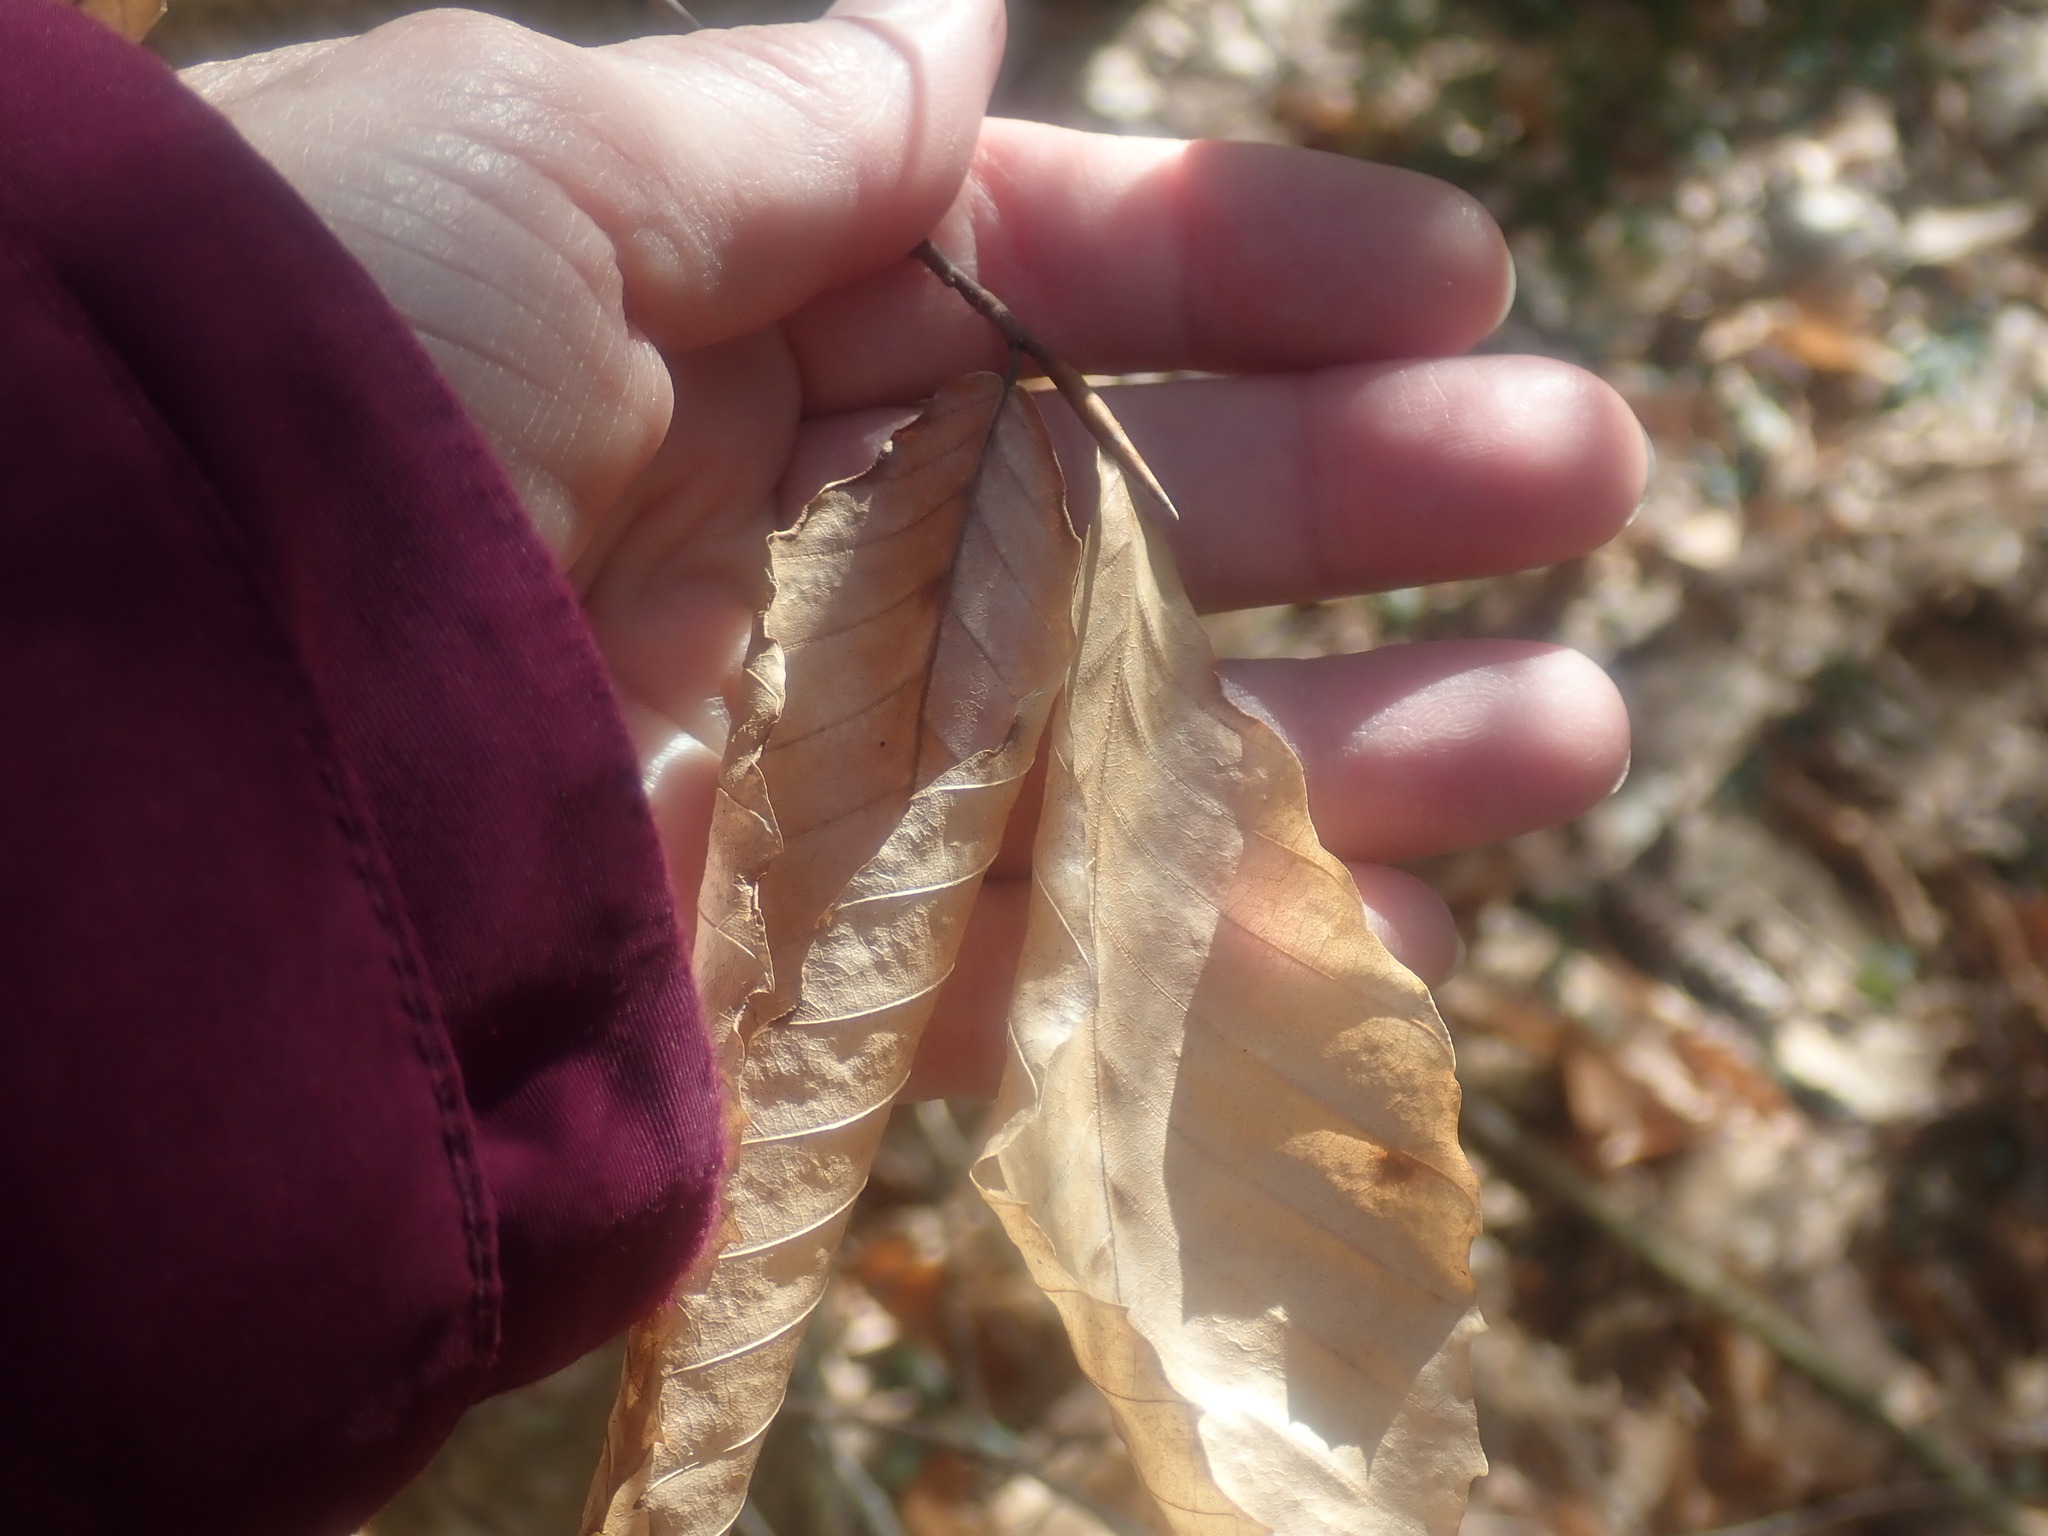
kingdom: Plantae
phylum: Tracheophyta
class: Magnoliopsida
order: Fagales
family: Fagaceae
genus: Fagus
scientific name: Fagus grandifolia
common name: American beech
